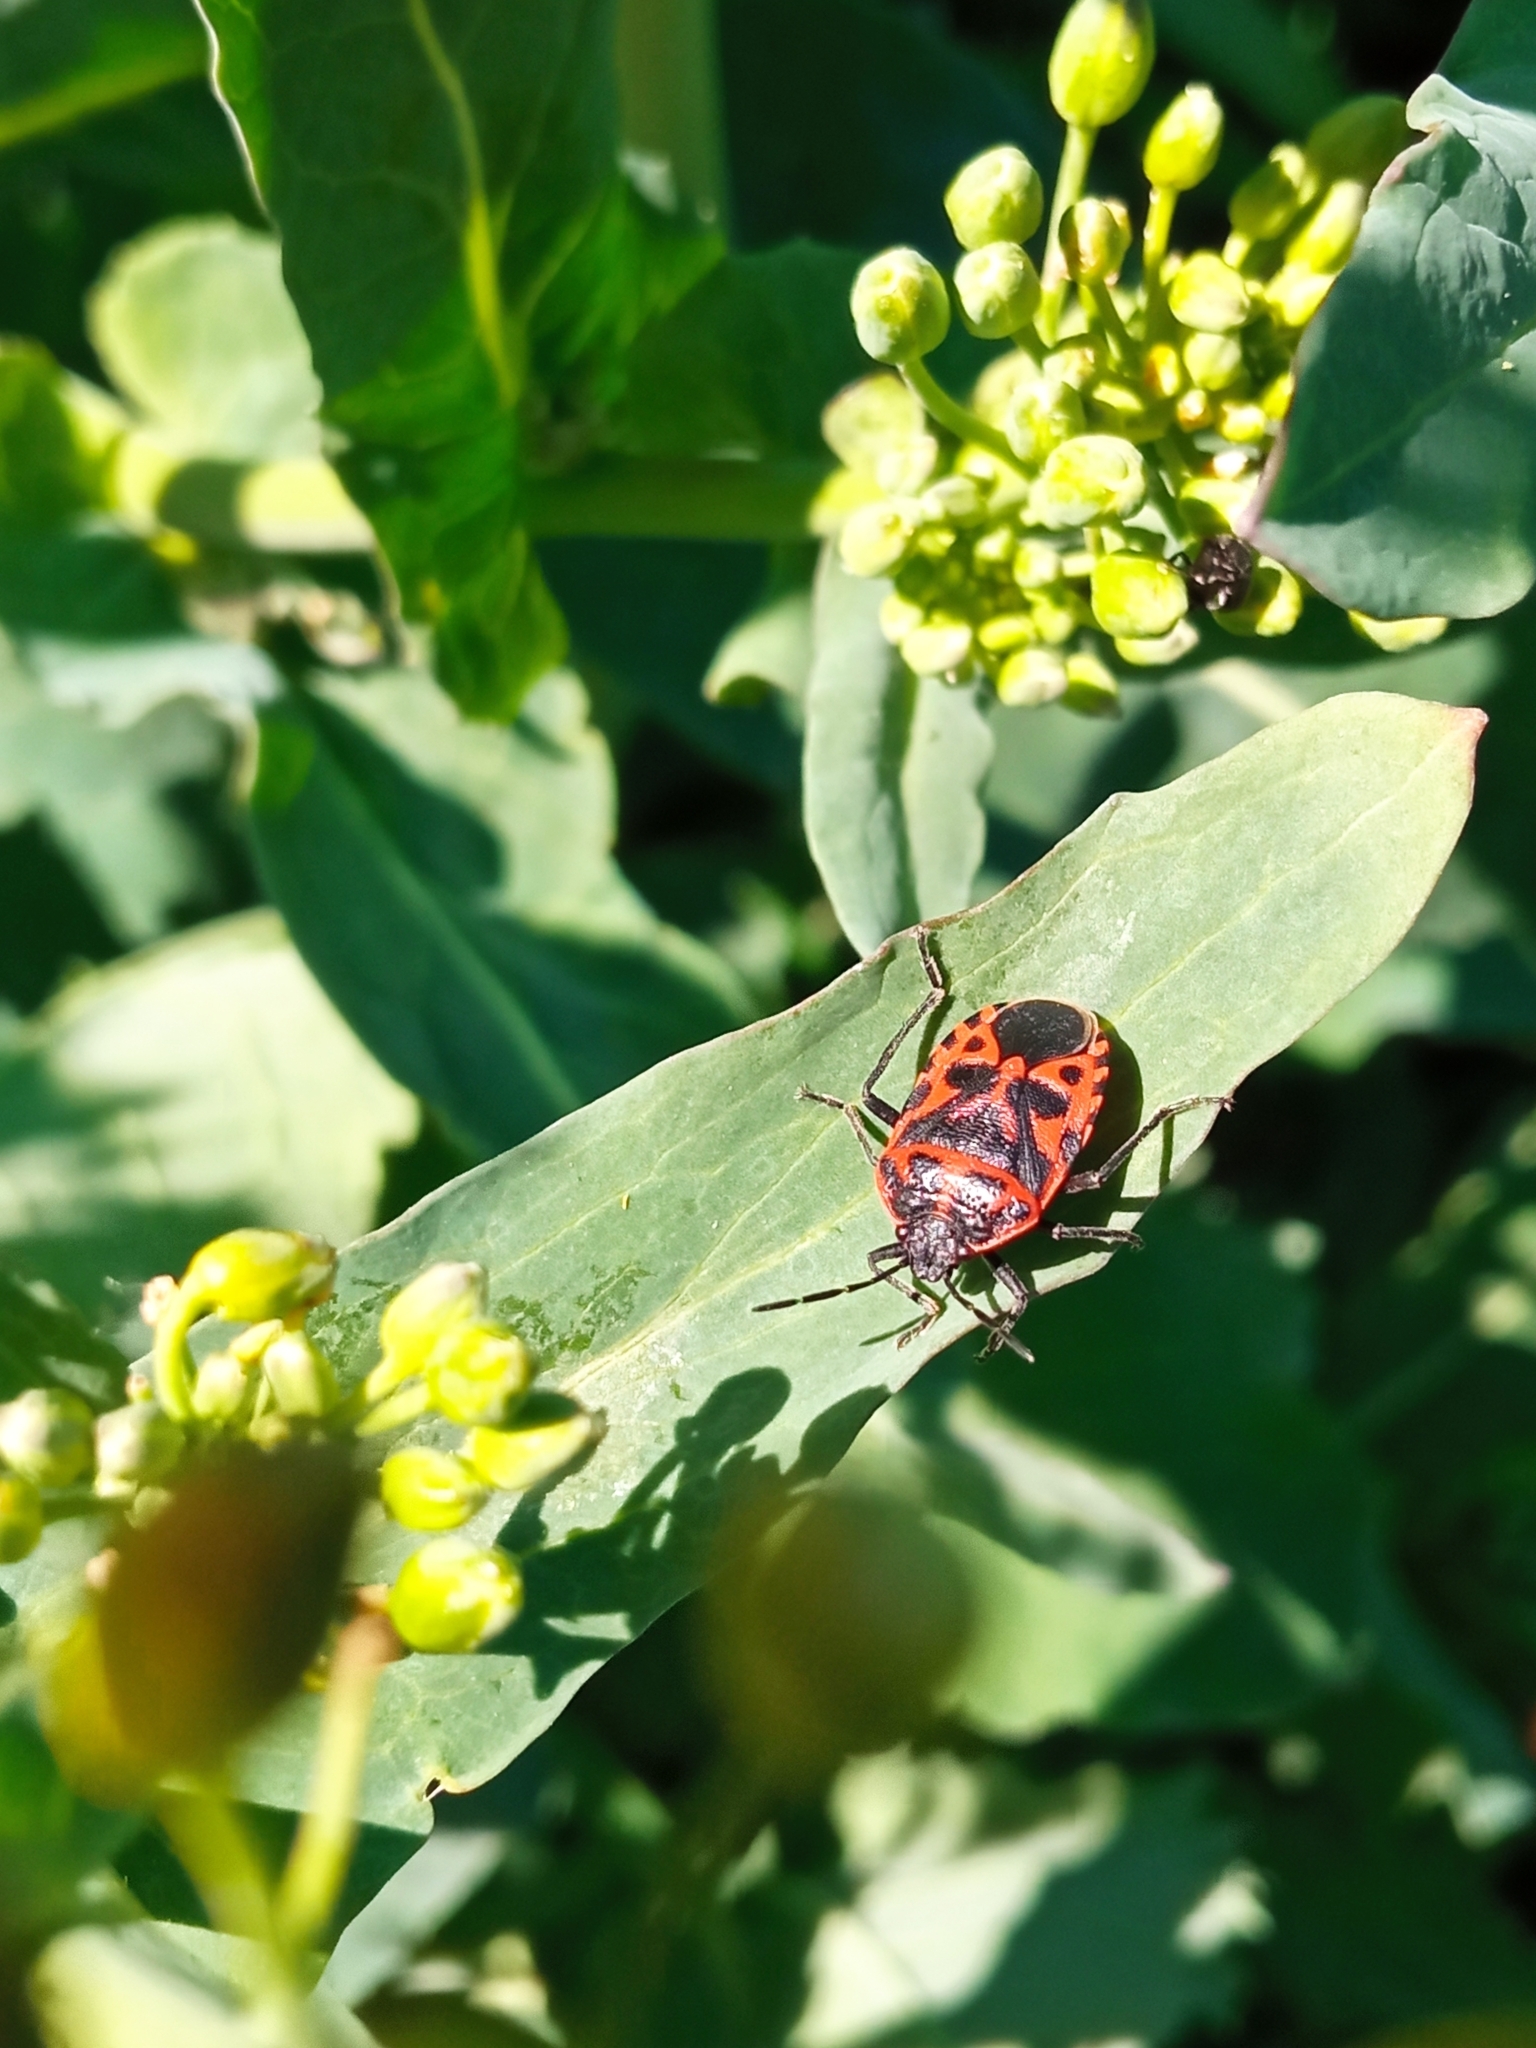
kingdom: Animalia
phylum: Arthropoda
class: Insecta
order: Hemiptera
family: Pentatomidae
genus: Eurydema
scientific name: Eurydema ventralis
